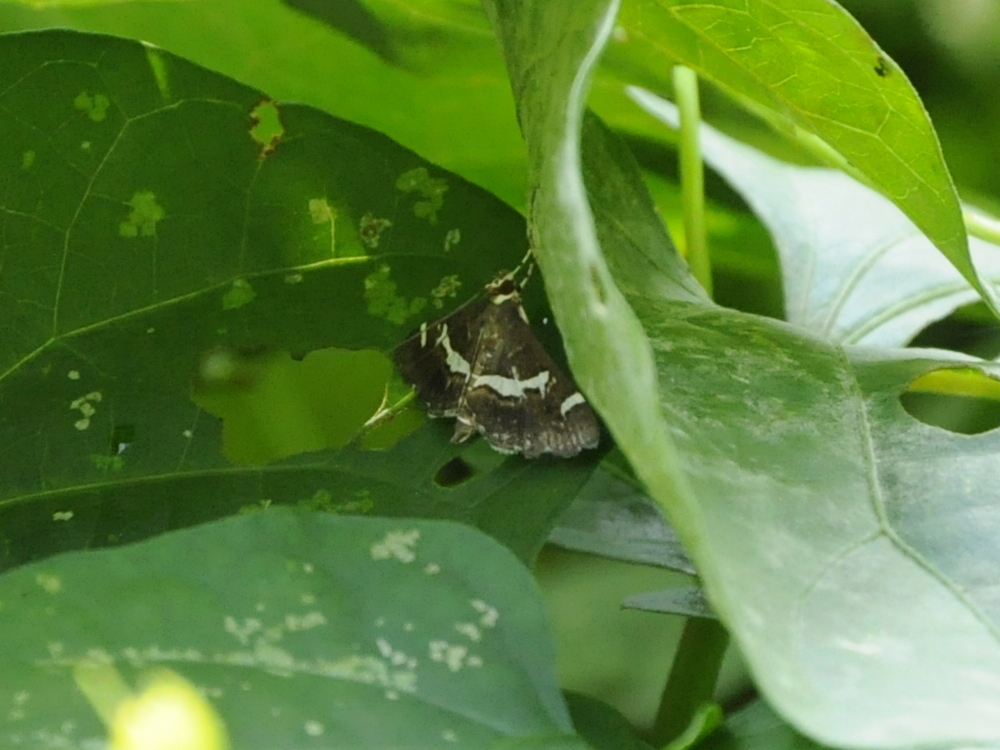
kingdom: Animalia
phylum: Arthropoda
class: Insecta
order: Lepidoptera
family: Crambidae
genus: Spoladea
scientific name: Spoladea recurvalis
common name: Beet webworm moth
